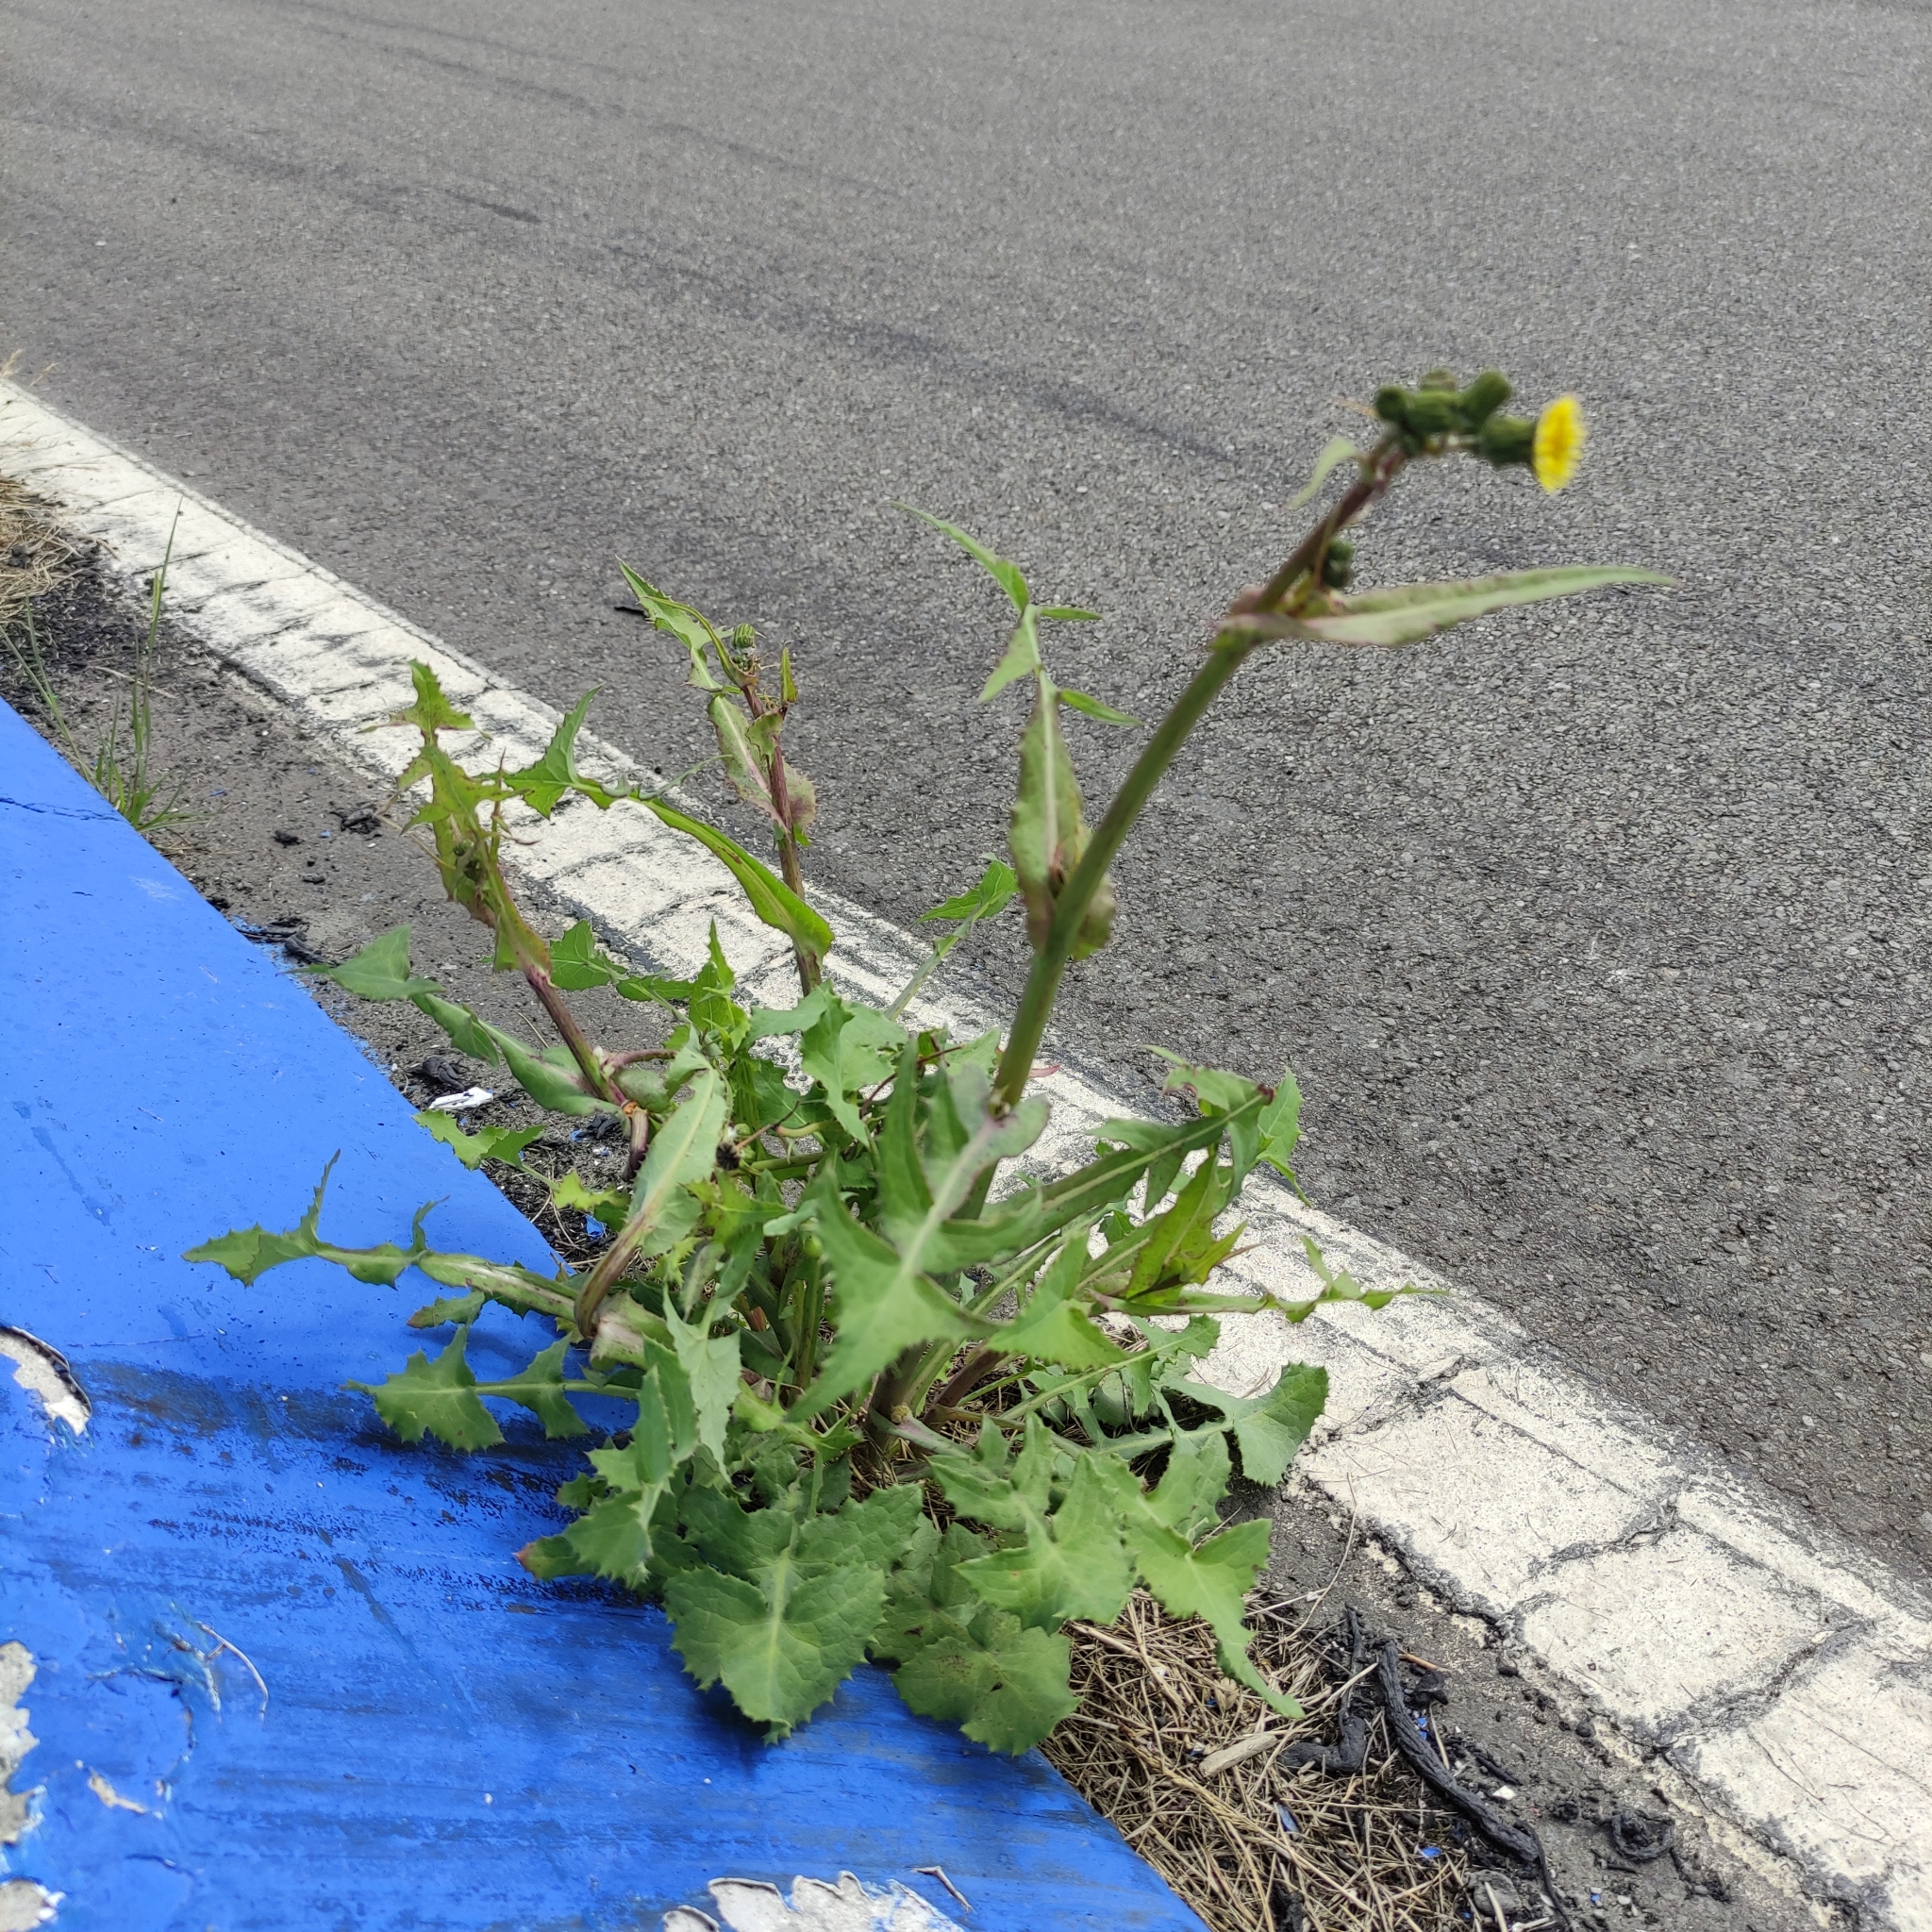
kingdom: Plantae
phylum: Tracheophyta
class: Magnoliopsida
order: Asterales
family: Asteraceae
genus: Sonchus
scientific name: Sonchus oleraceus
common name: Common sowthistle
